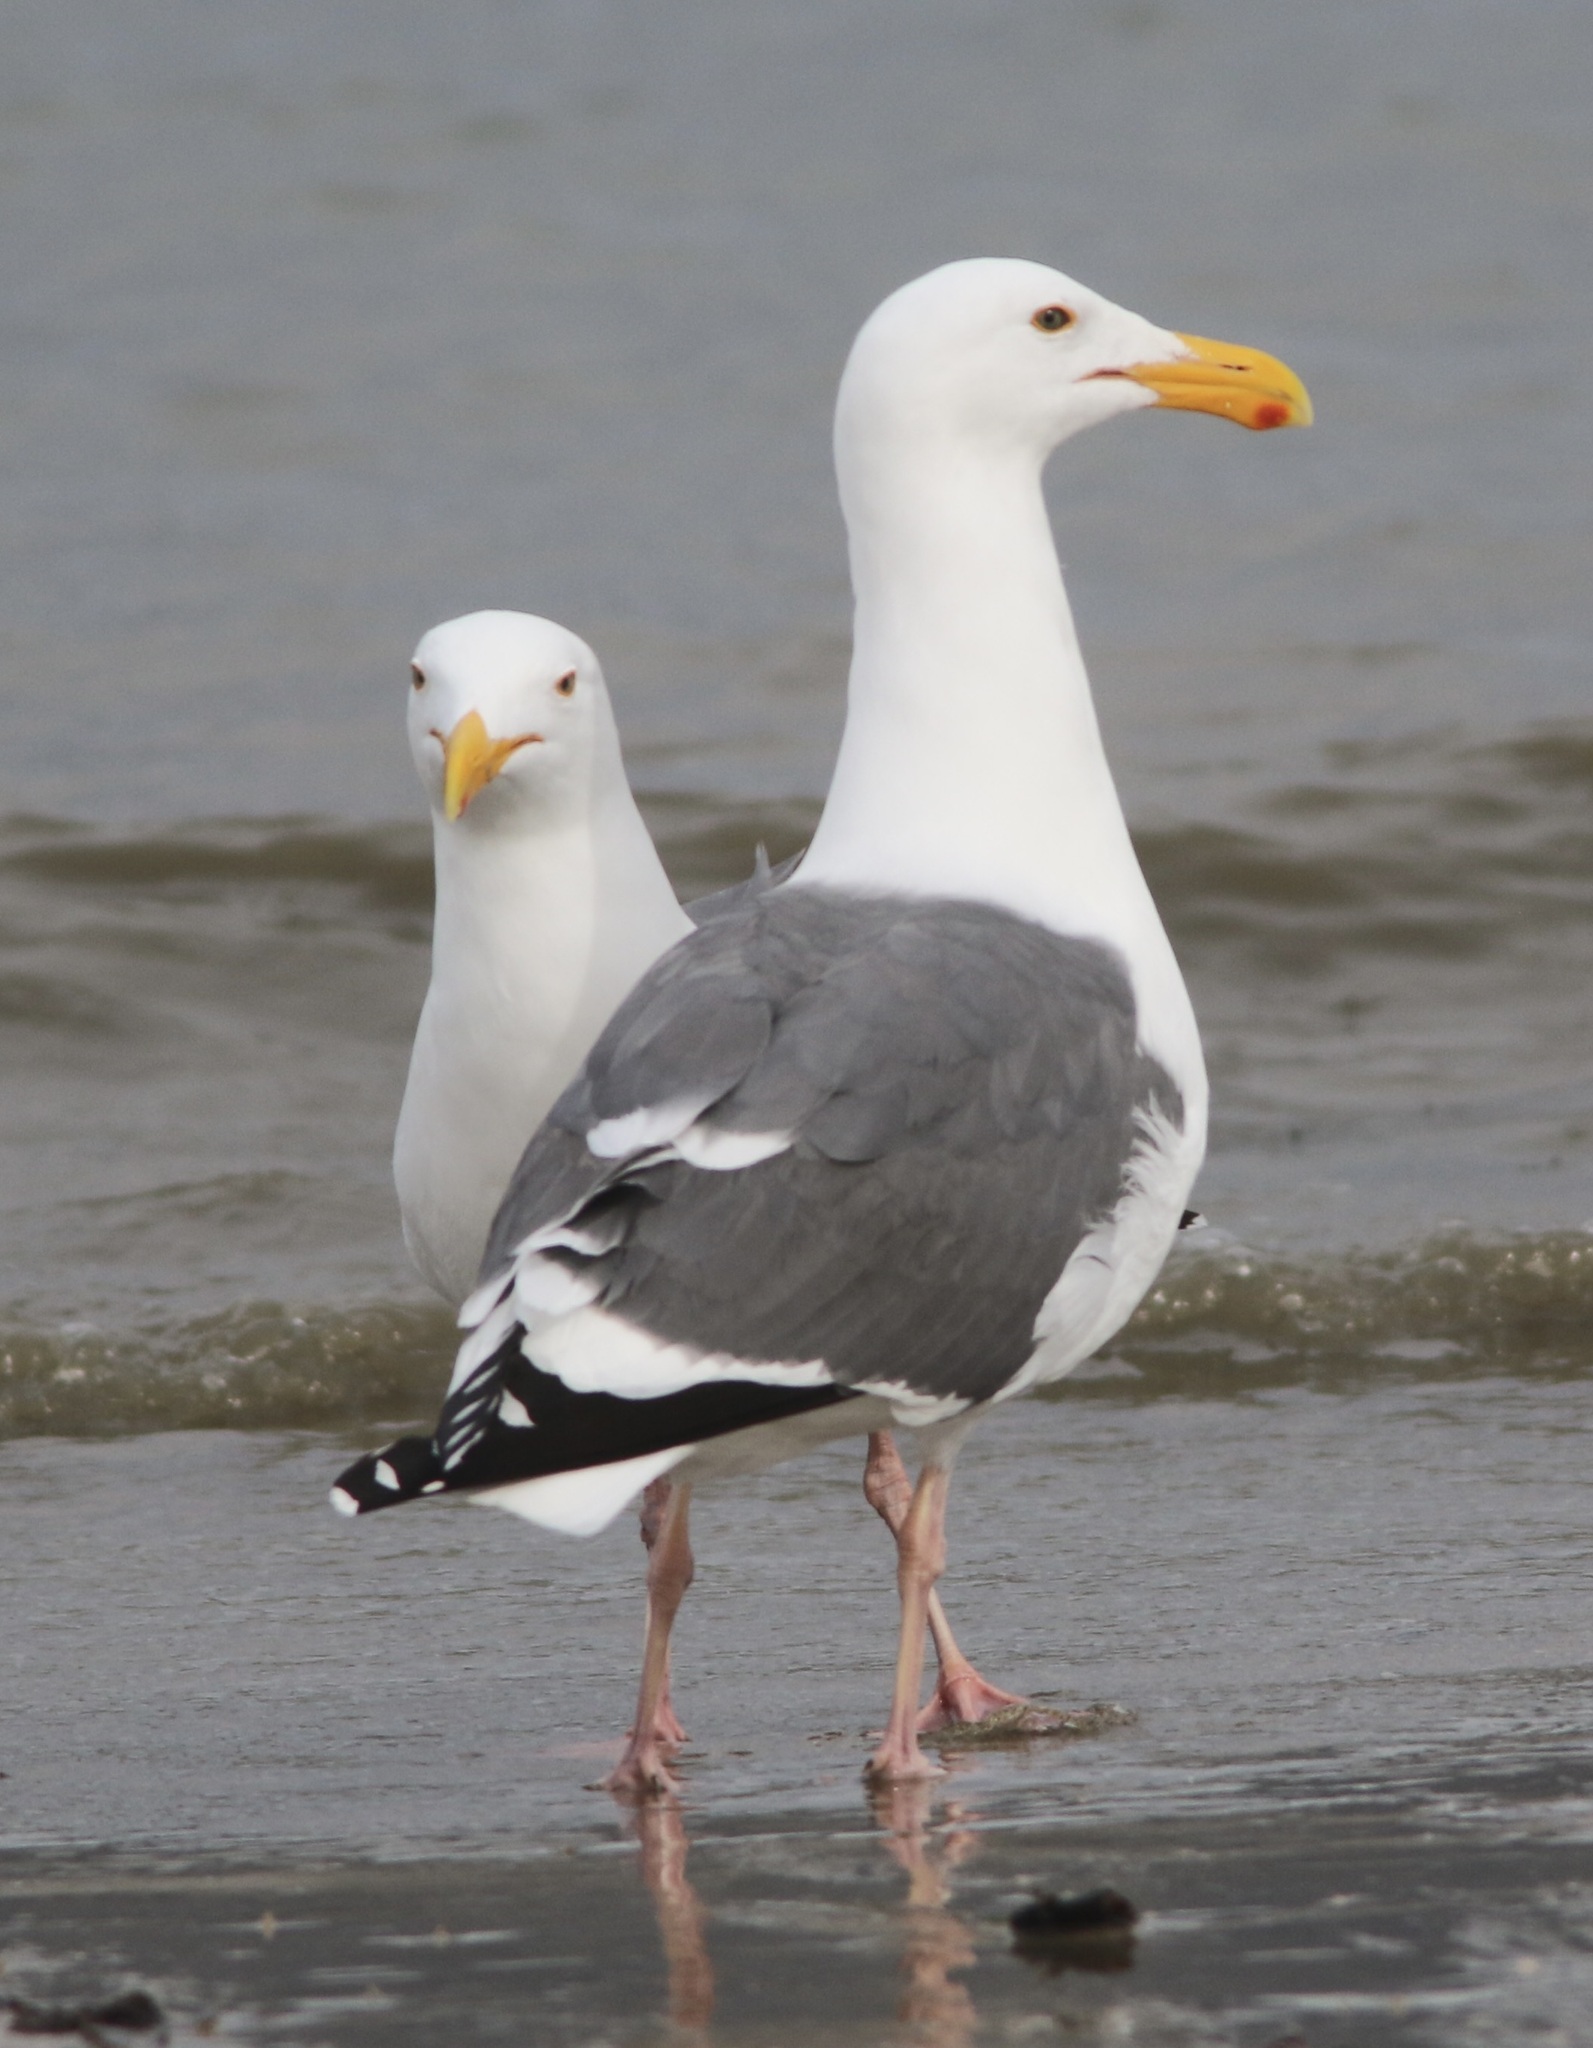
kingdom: Animalia
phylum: Chordata
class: Aves
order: Charadriiformes
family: Laridae
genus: Larus
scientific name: Larus occidentalis
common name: Western gull
